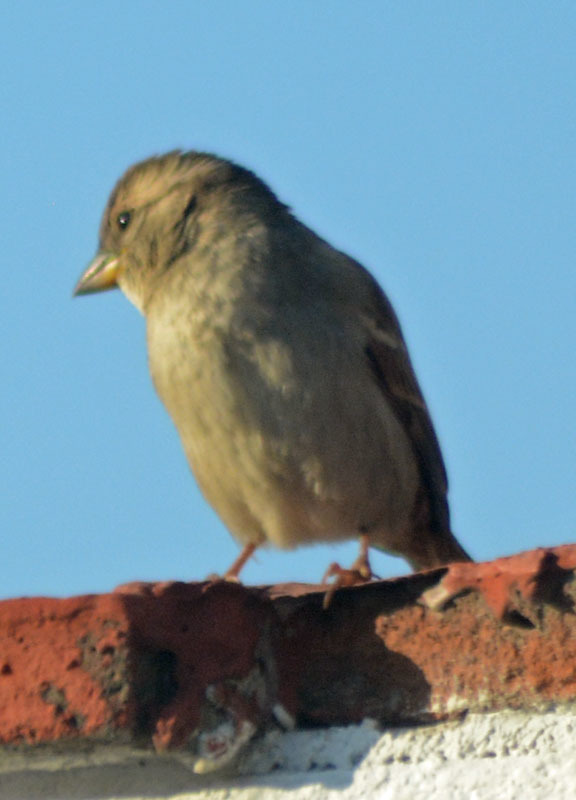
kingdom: Animalia
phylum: Chordata
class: Aves
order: Passeriformes
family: Passeridae
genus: Passer
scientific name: Passer domesticus
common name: House sparrow
